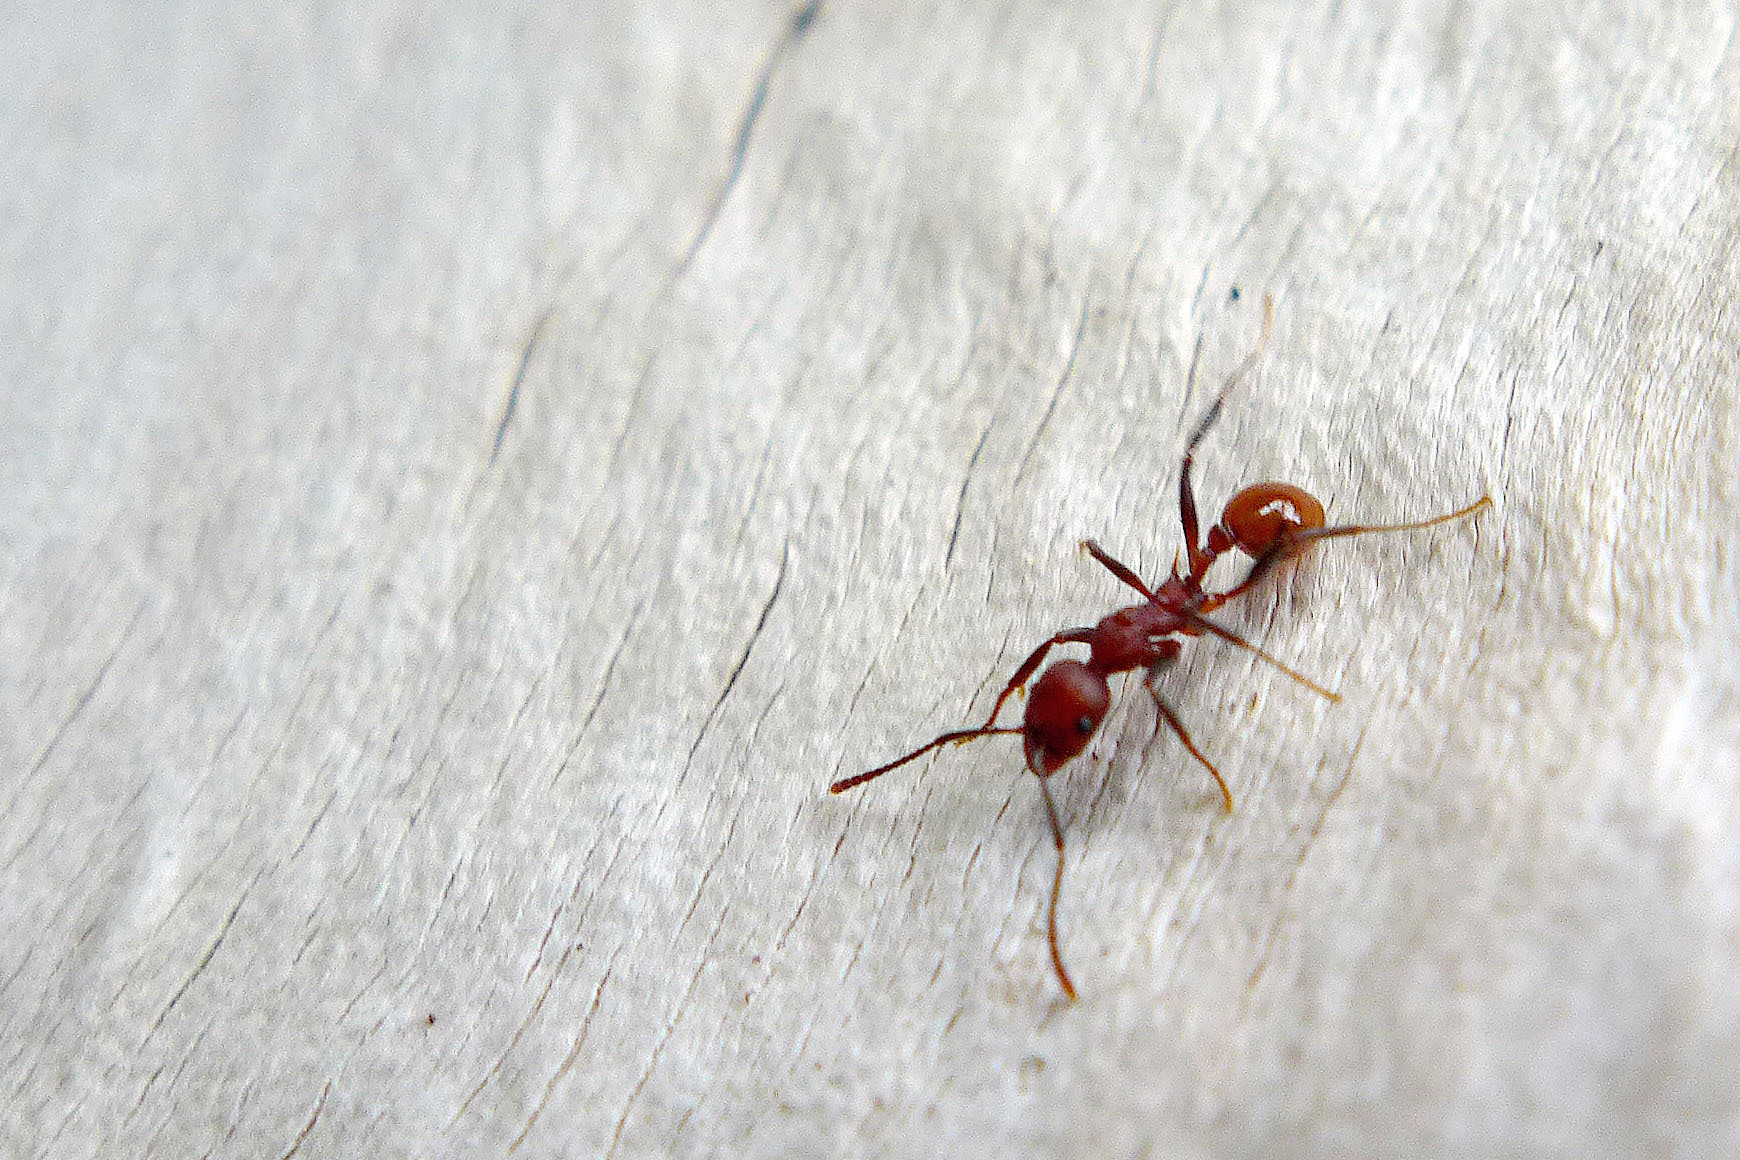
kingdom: Animalia
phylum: Arthropoda
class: Insecta
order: Hymenoptera
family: Formicidae
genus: Aphaenogaster
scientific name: Aphaenogaster tennesseensis
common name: Tennessee thread-waisted ant
